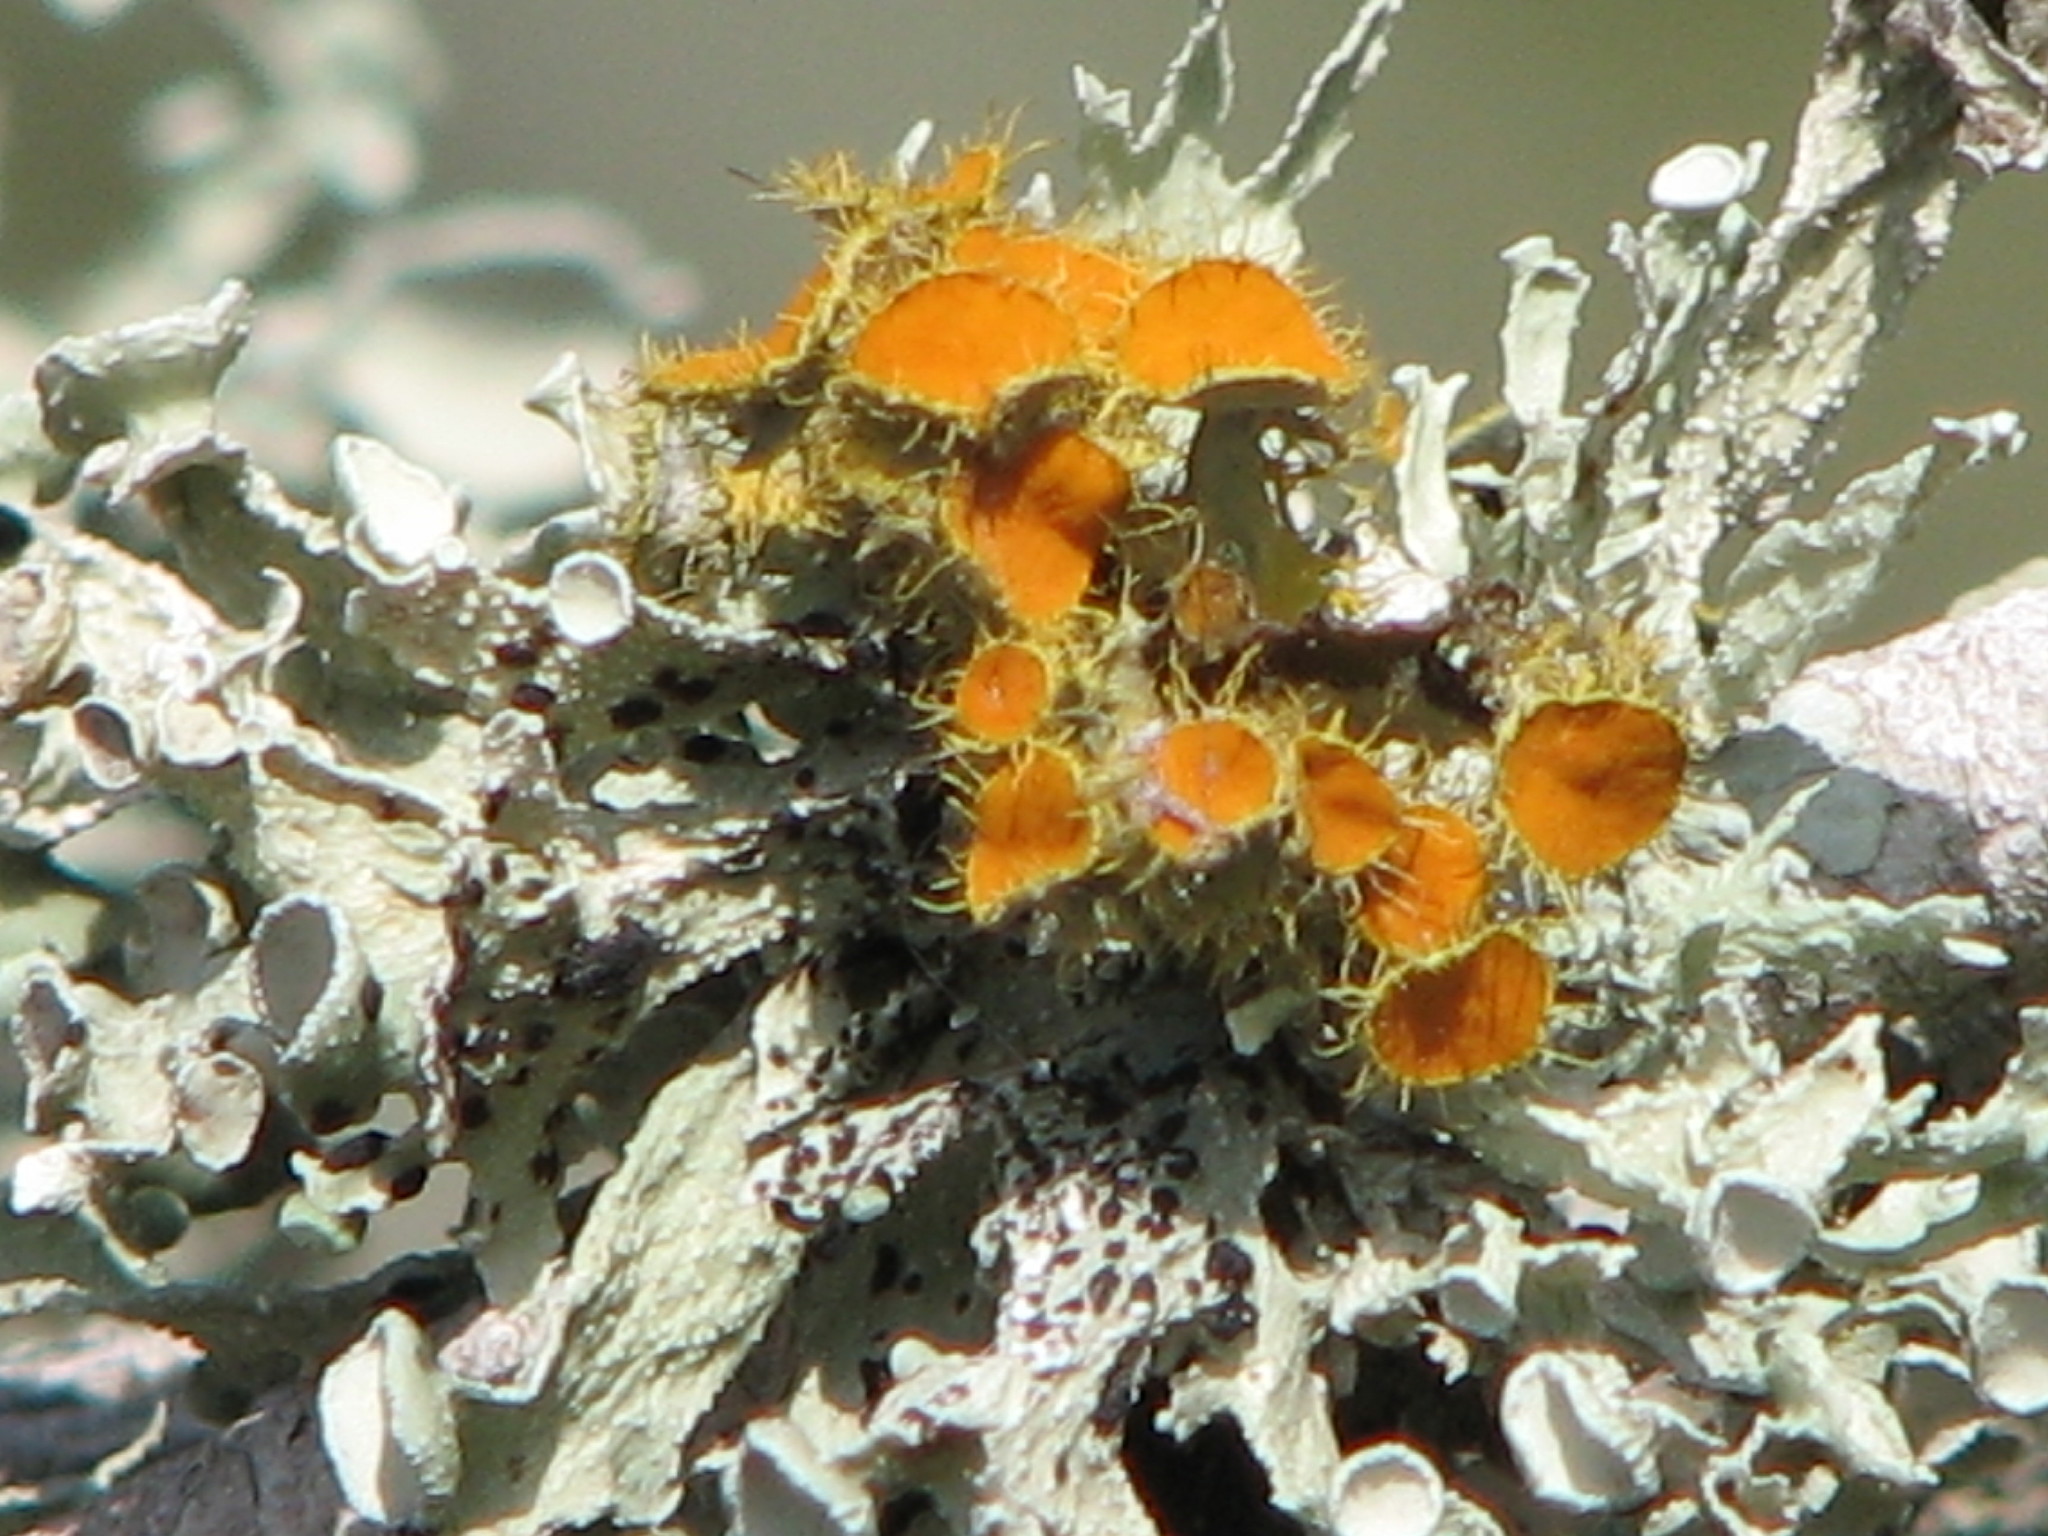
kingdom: Fungi
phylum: Ascomycota
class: Lecanoromycetes
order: Teloschistales
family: Teloschistaceae
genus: Niorma
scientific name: Niorma chrysophthalma
